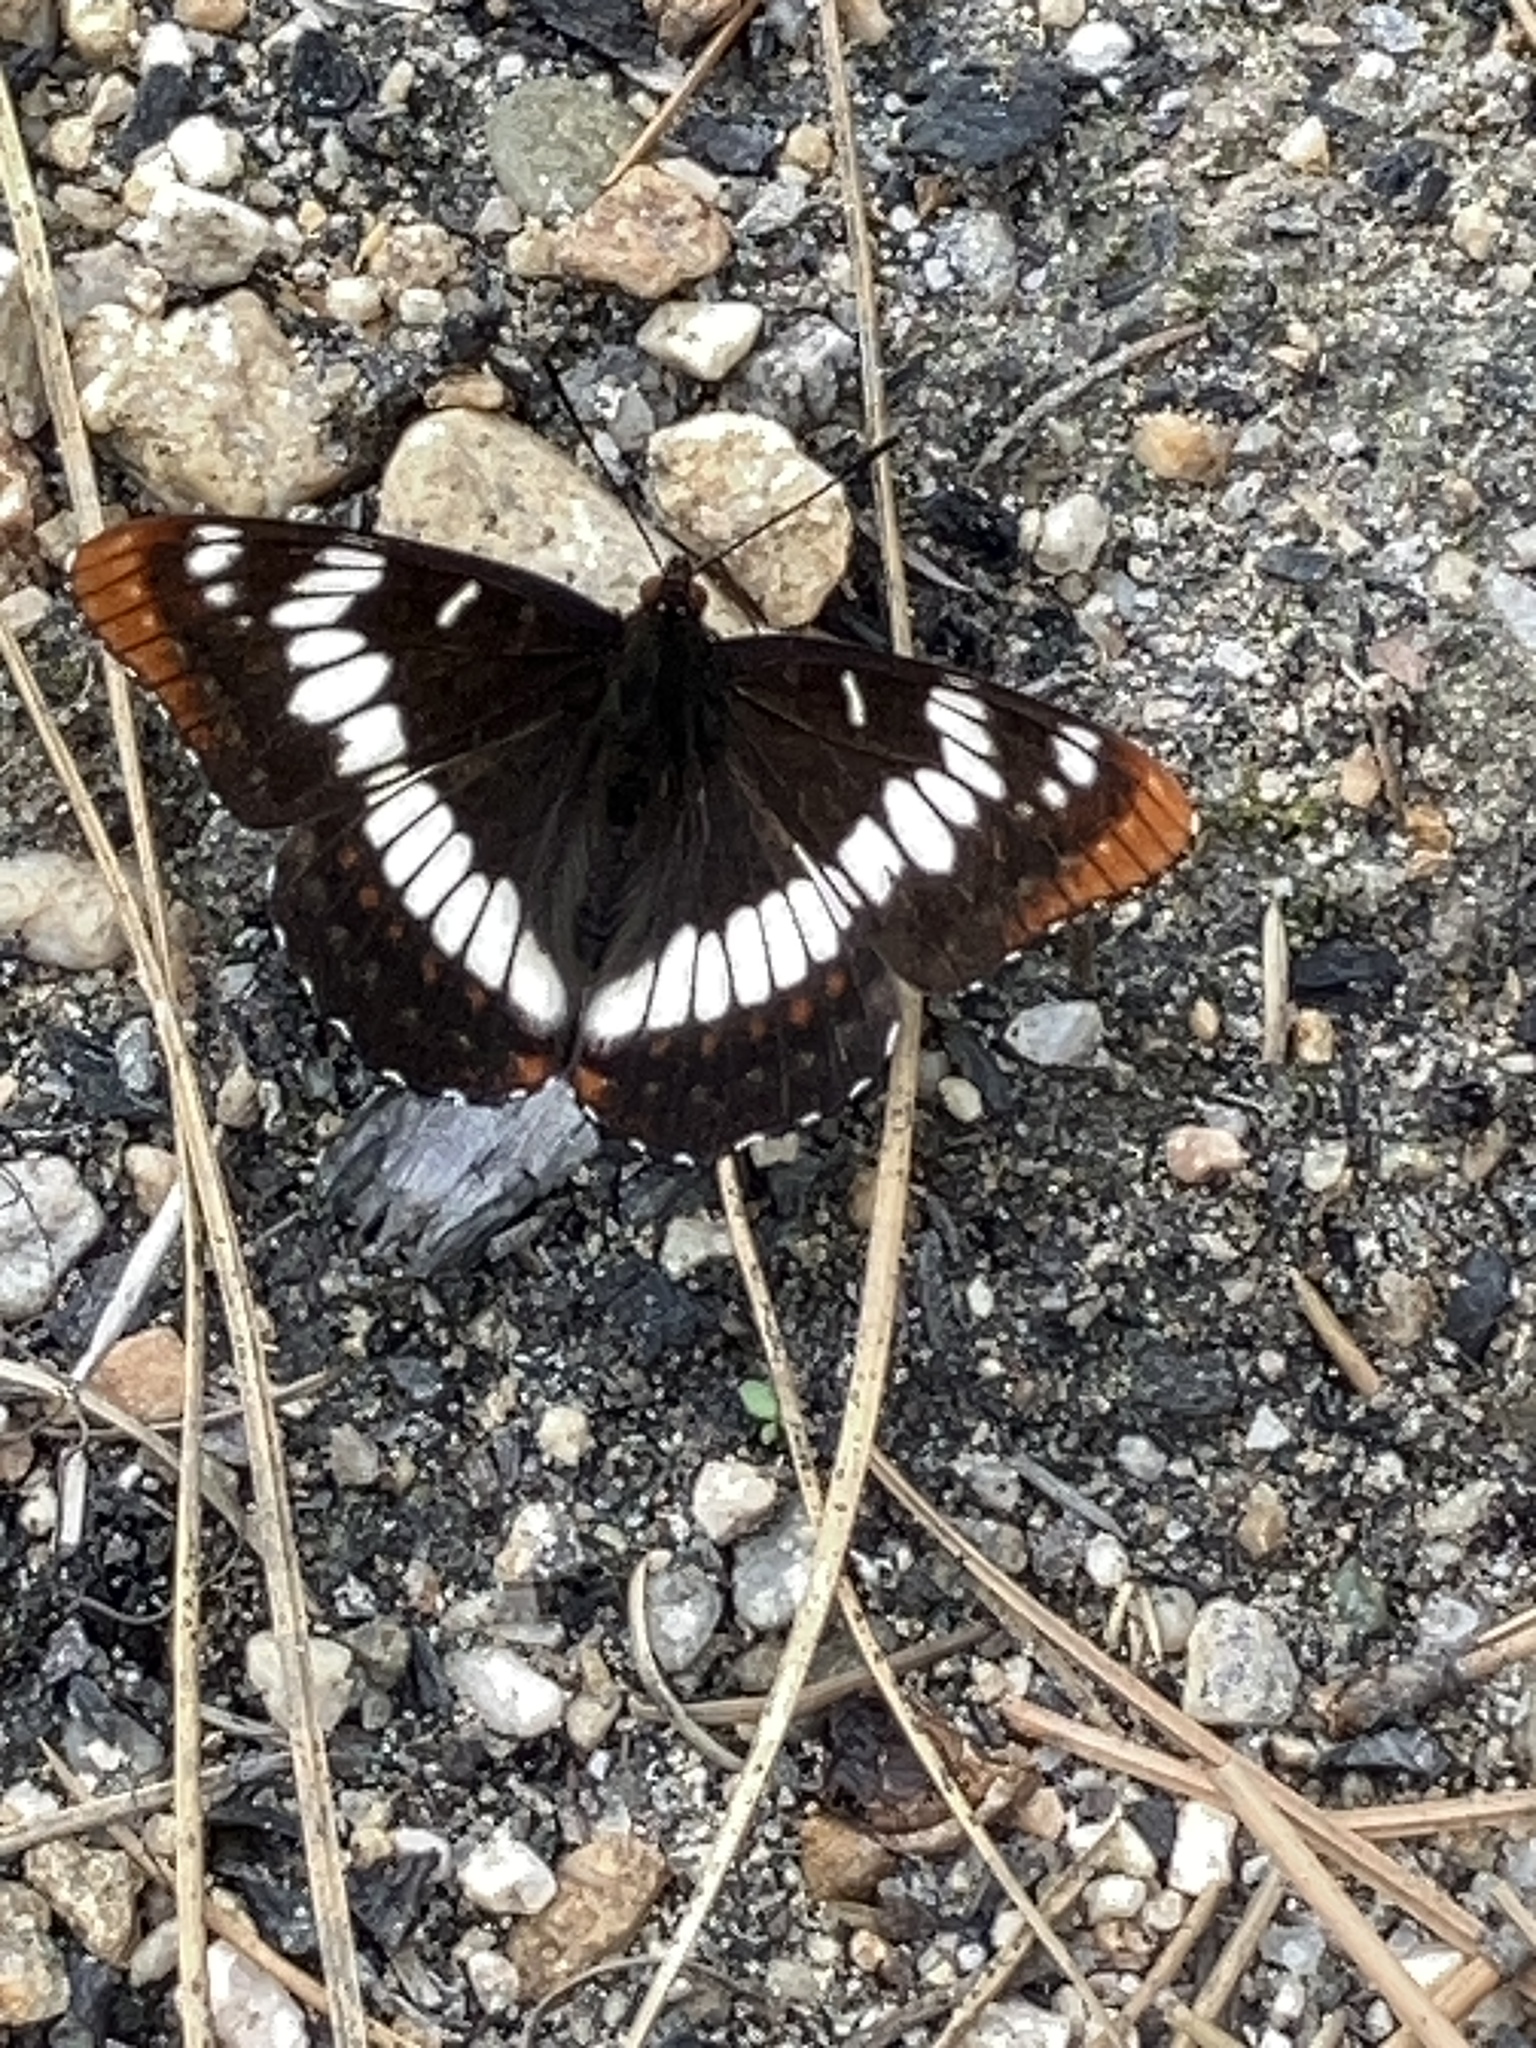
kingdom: Animalia
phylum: Arthropoda
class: Insecta
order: Lepidoptera
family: Nymphalidae
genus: Limenitis
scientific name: Limenitis lorquini
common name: Lorquin's admiral
